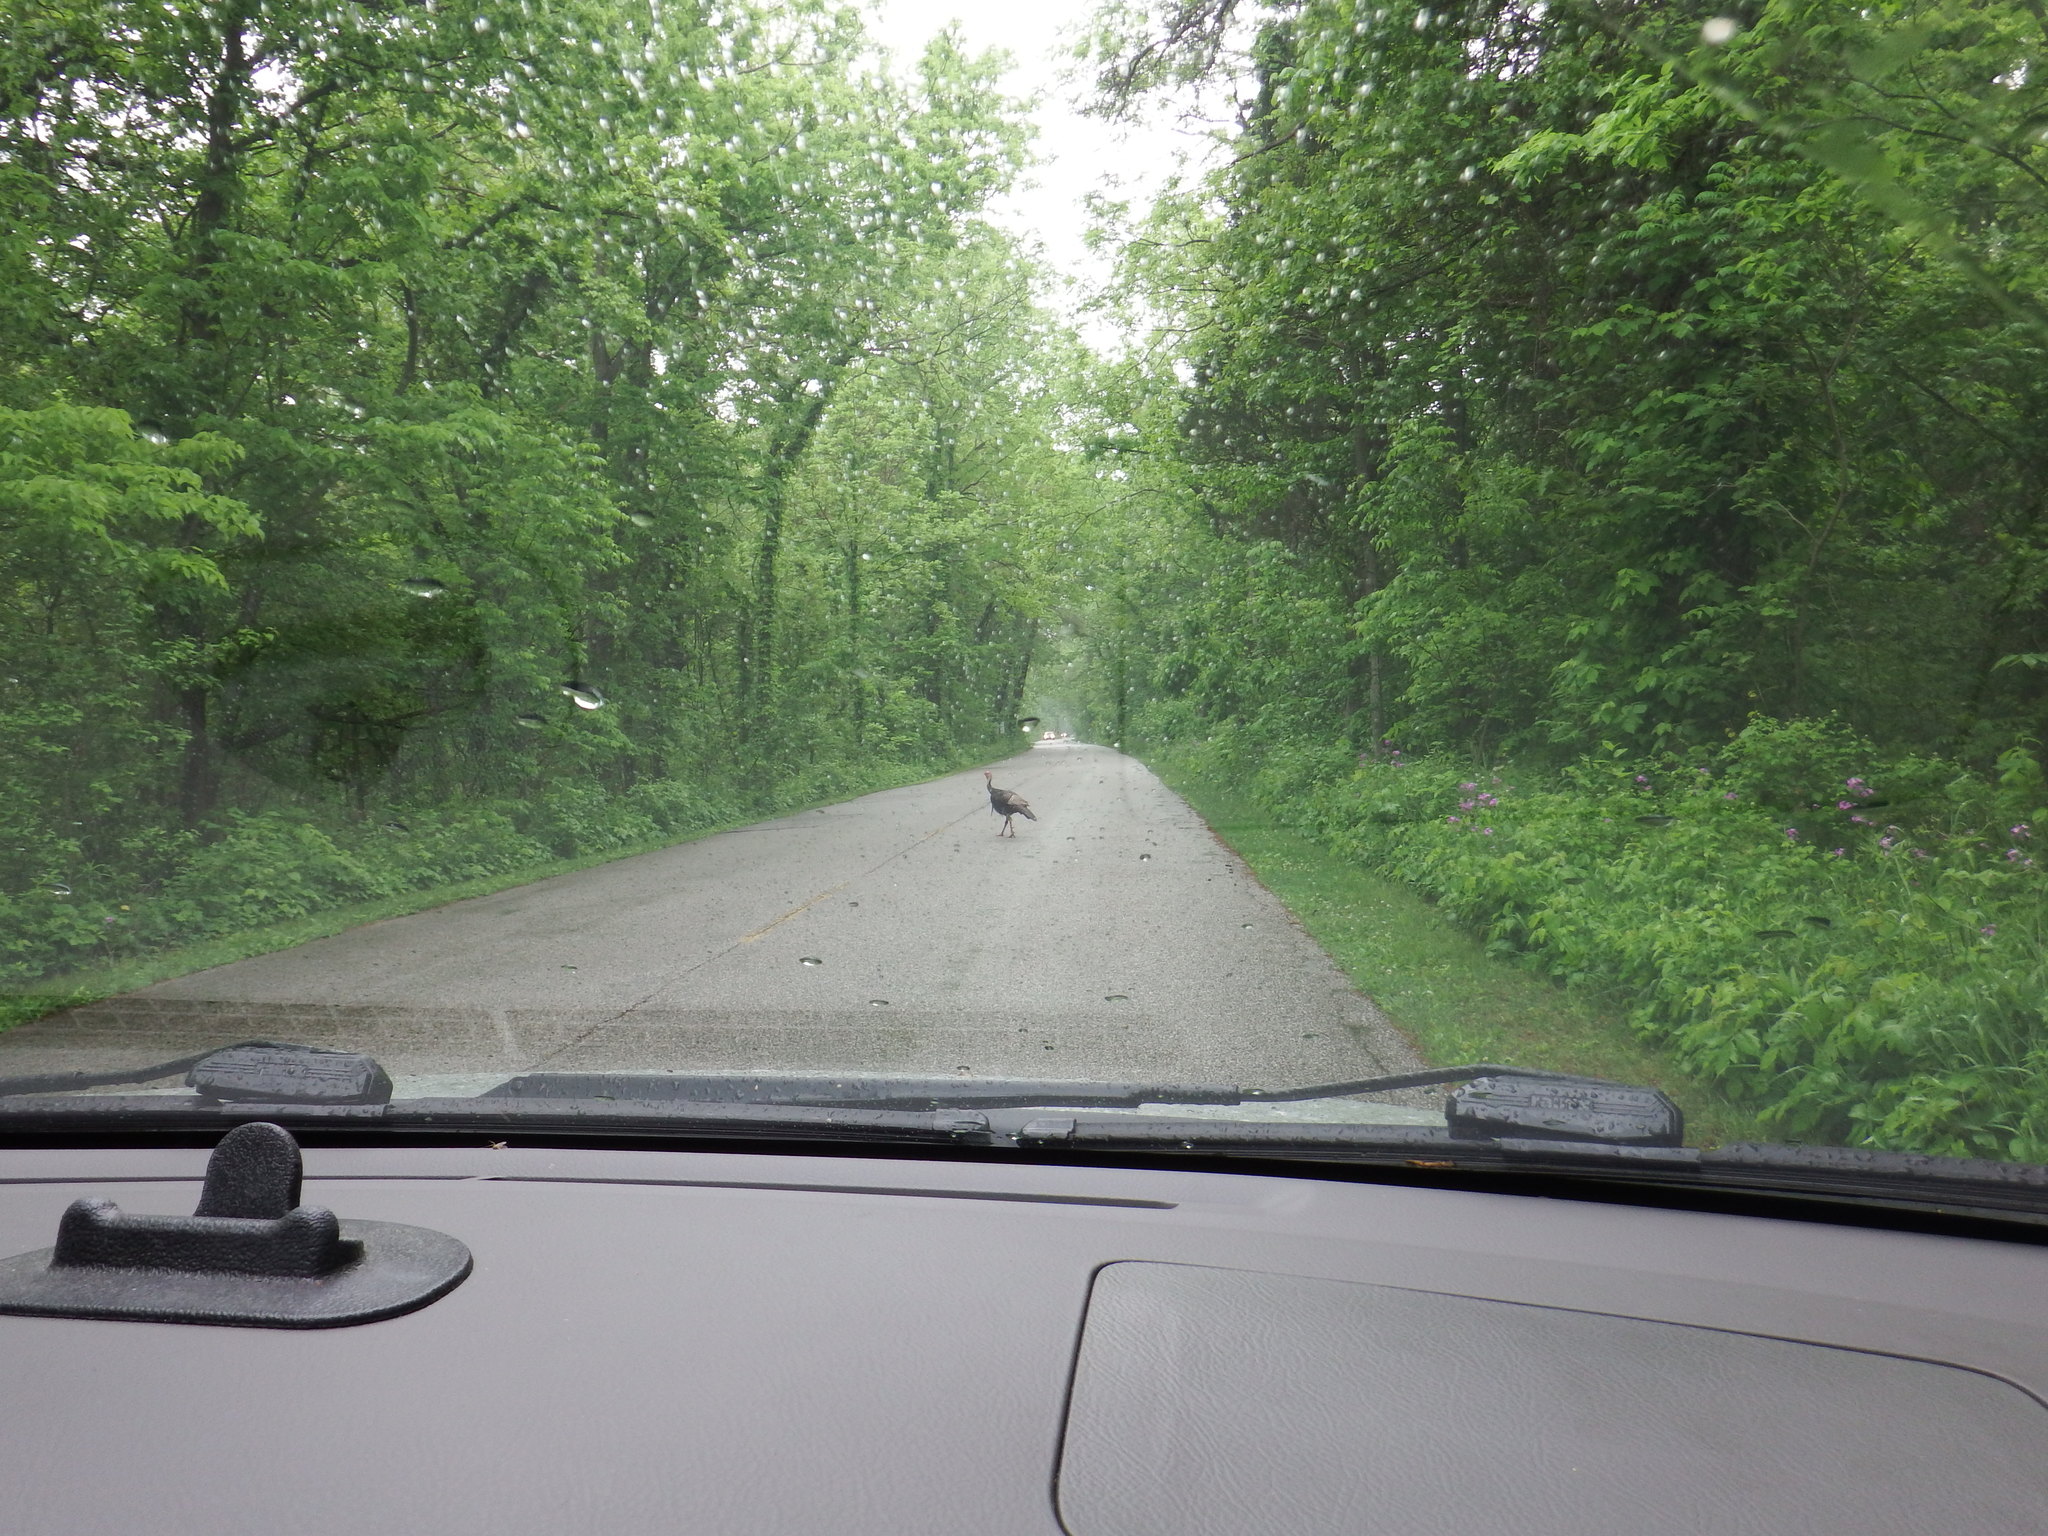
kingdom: Animalia
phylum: Chordata
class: Aves
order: Galliformes
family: Phasianidae
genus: Meleagris
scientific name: Meleagris gallopavo
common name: Wild turkey
